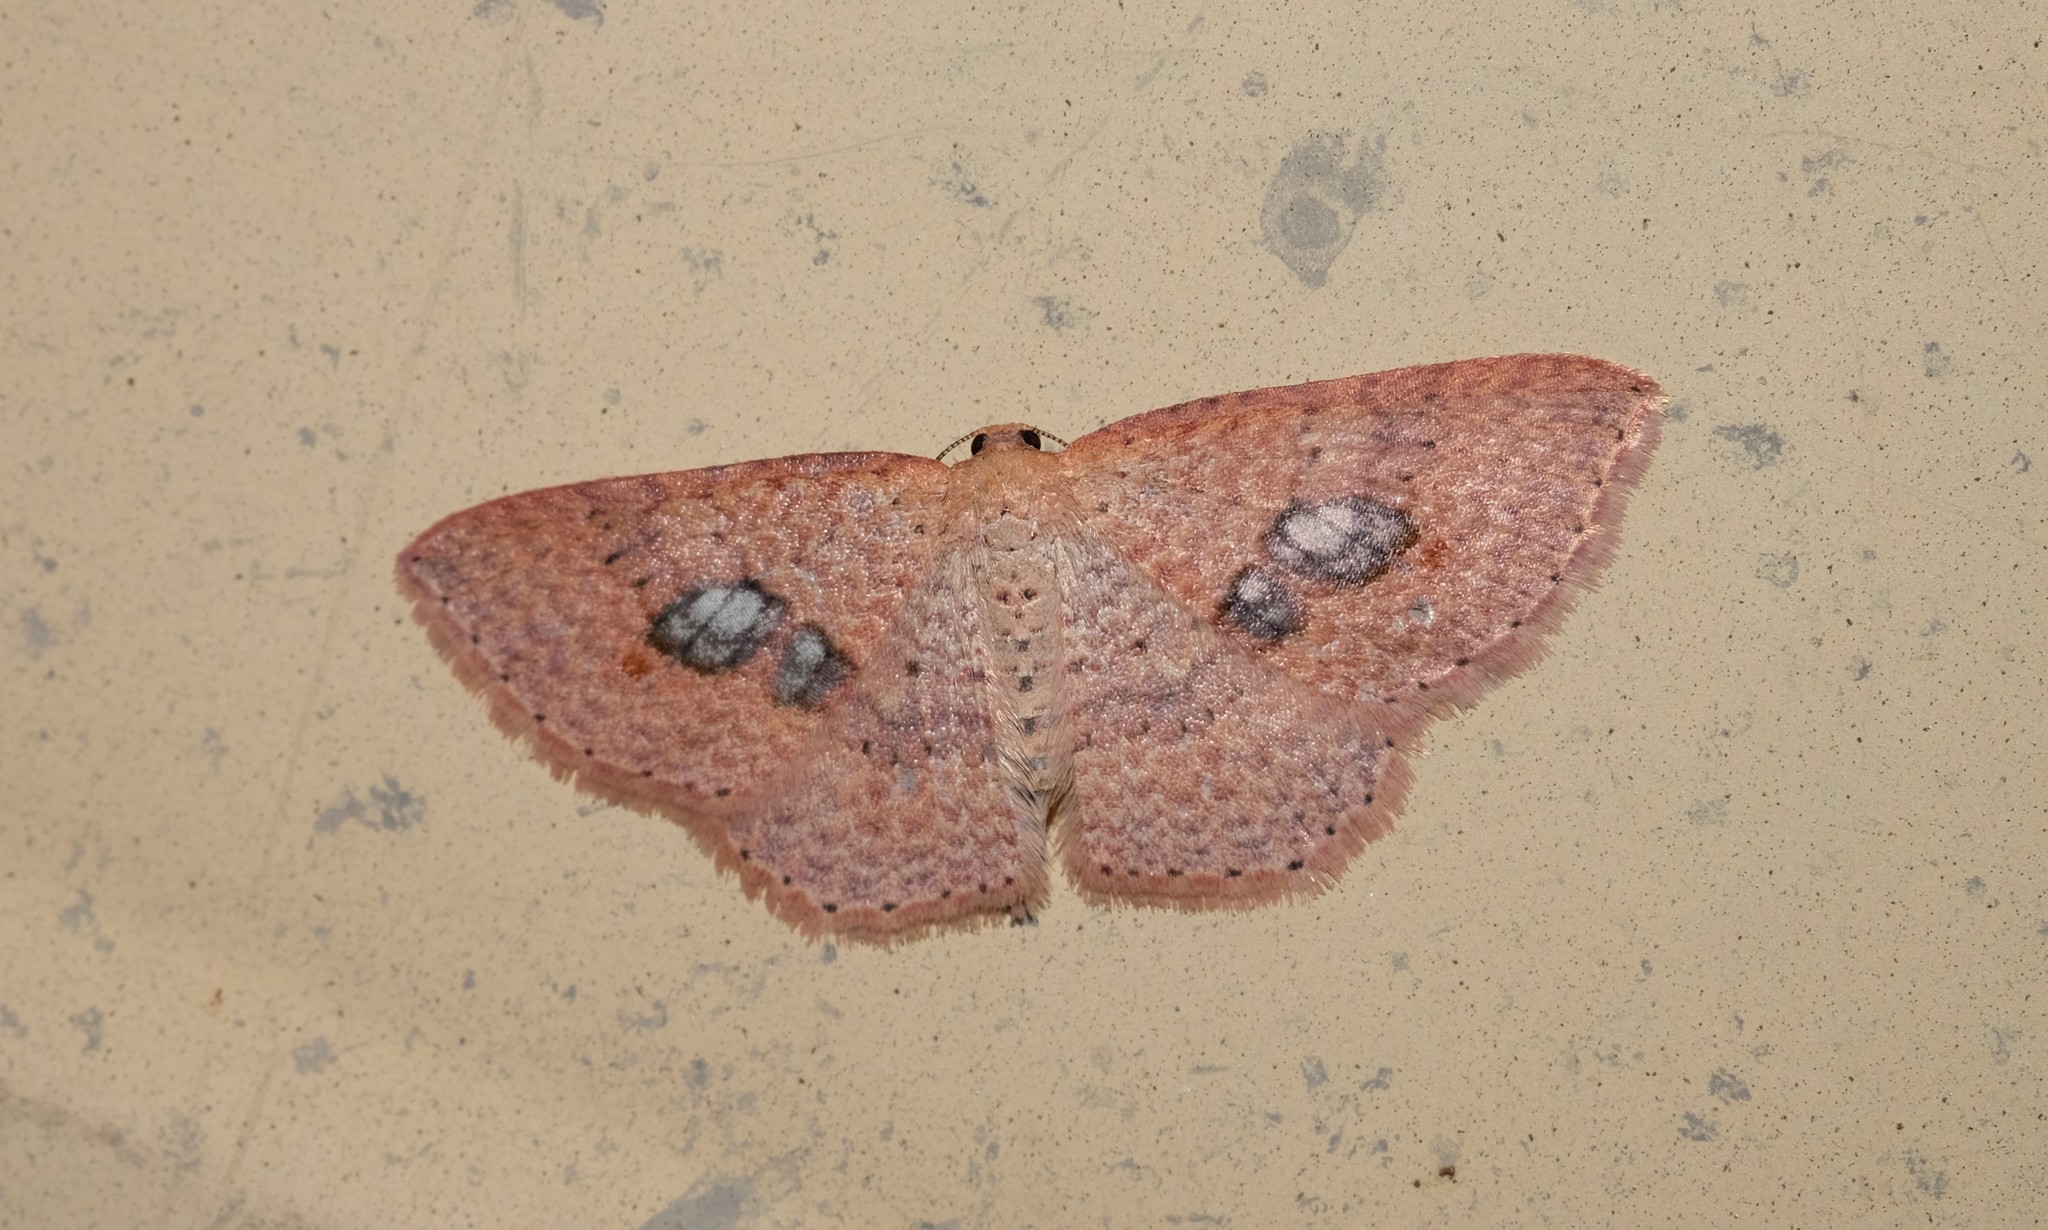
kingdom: Animalia
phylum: Arthropoda
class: Insecta
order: Lepidoptera
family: Geometridae
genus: Epicyme
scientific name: Epicyme rubropunctaria
